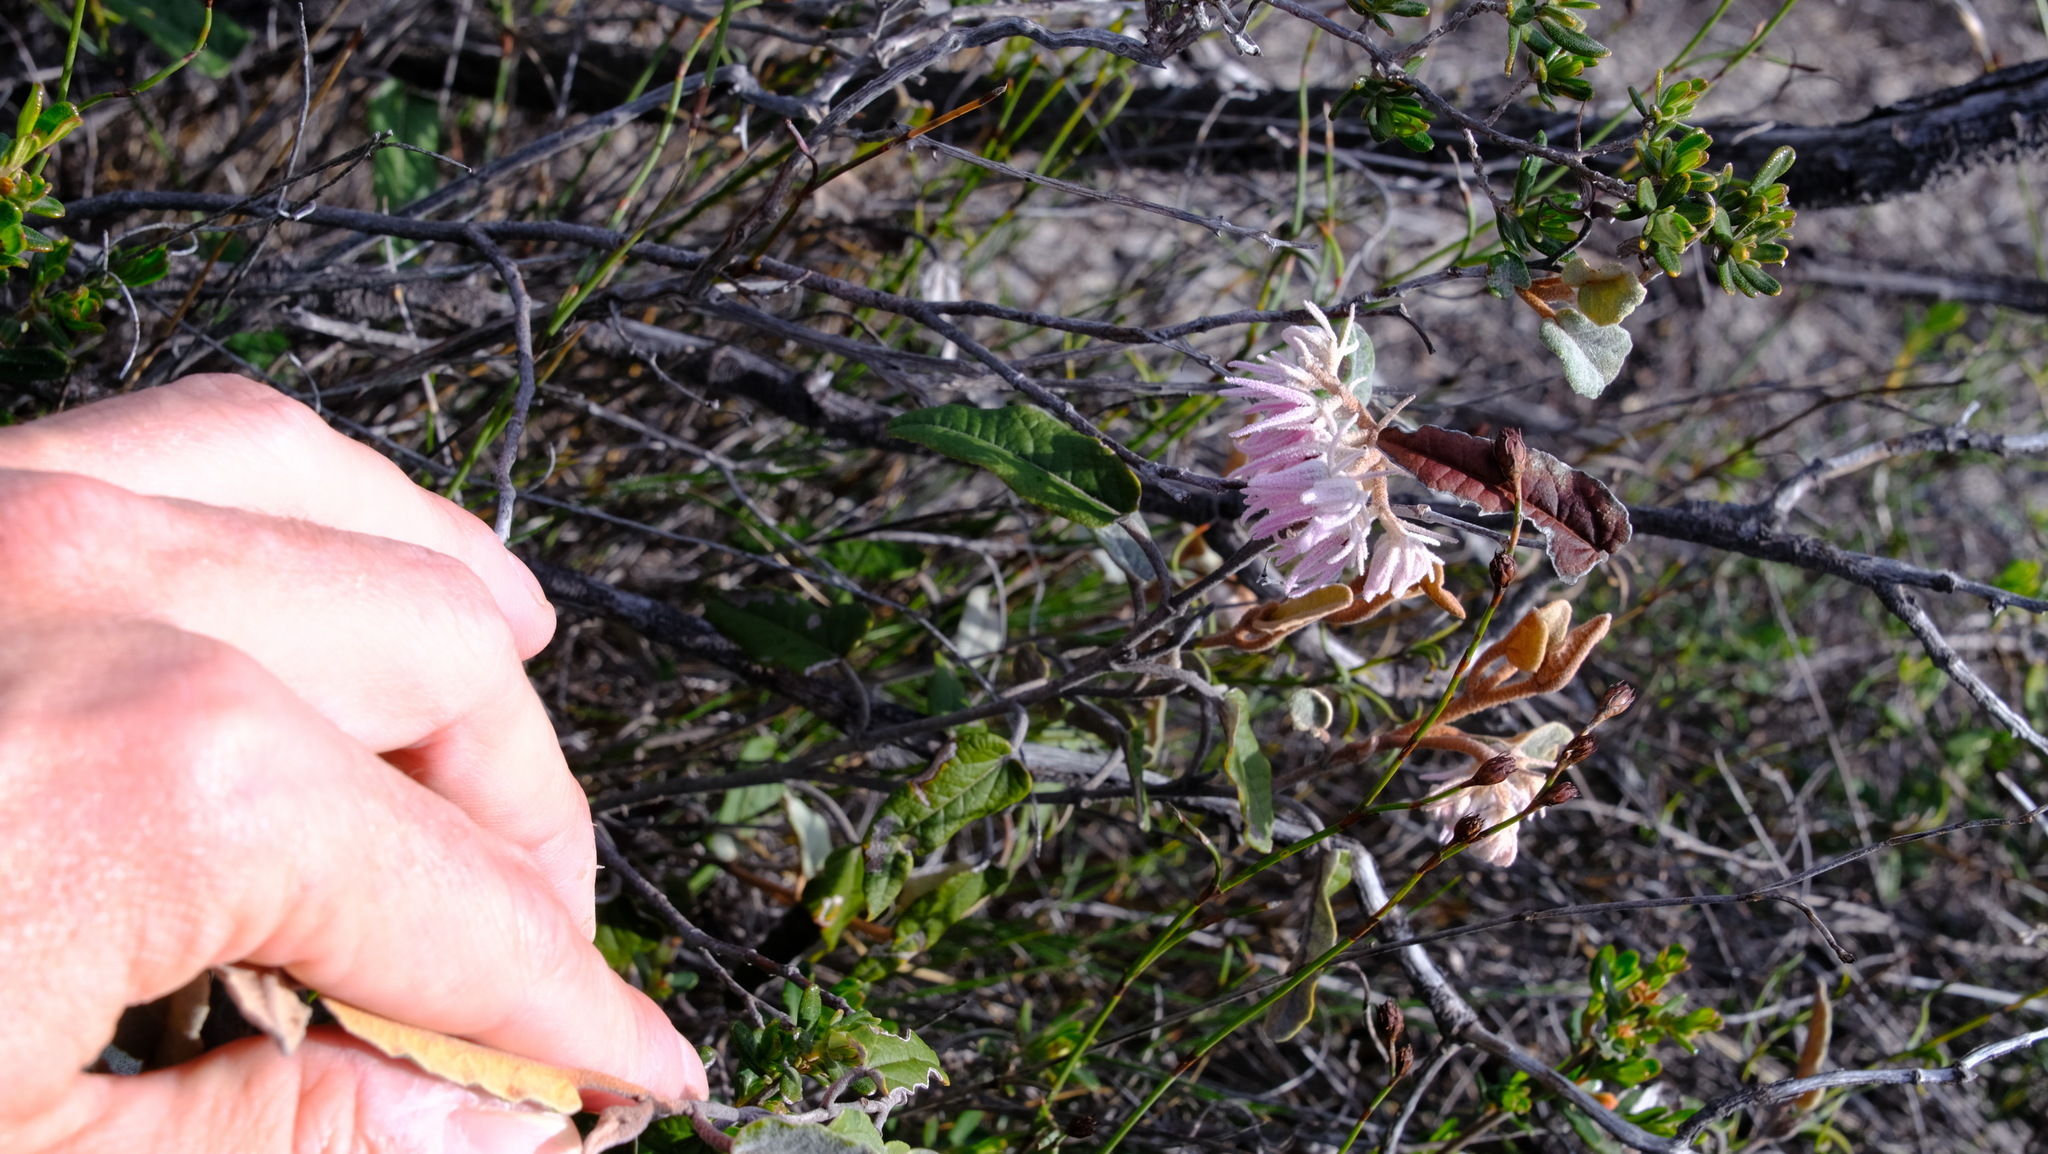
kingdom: Plantae
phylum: Tracheophyta
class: Magnoliopsida
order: Malvales
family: Malvaceae
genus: Lasiopetalum
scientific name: Lasiopetalum drummondii
